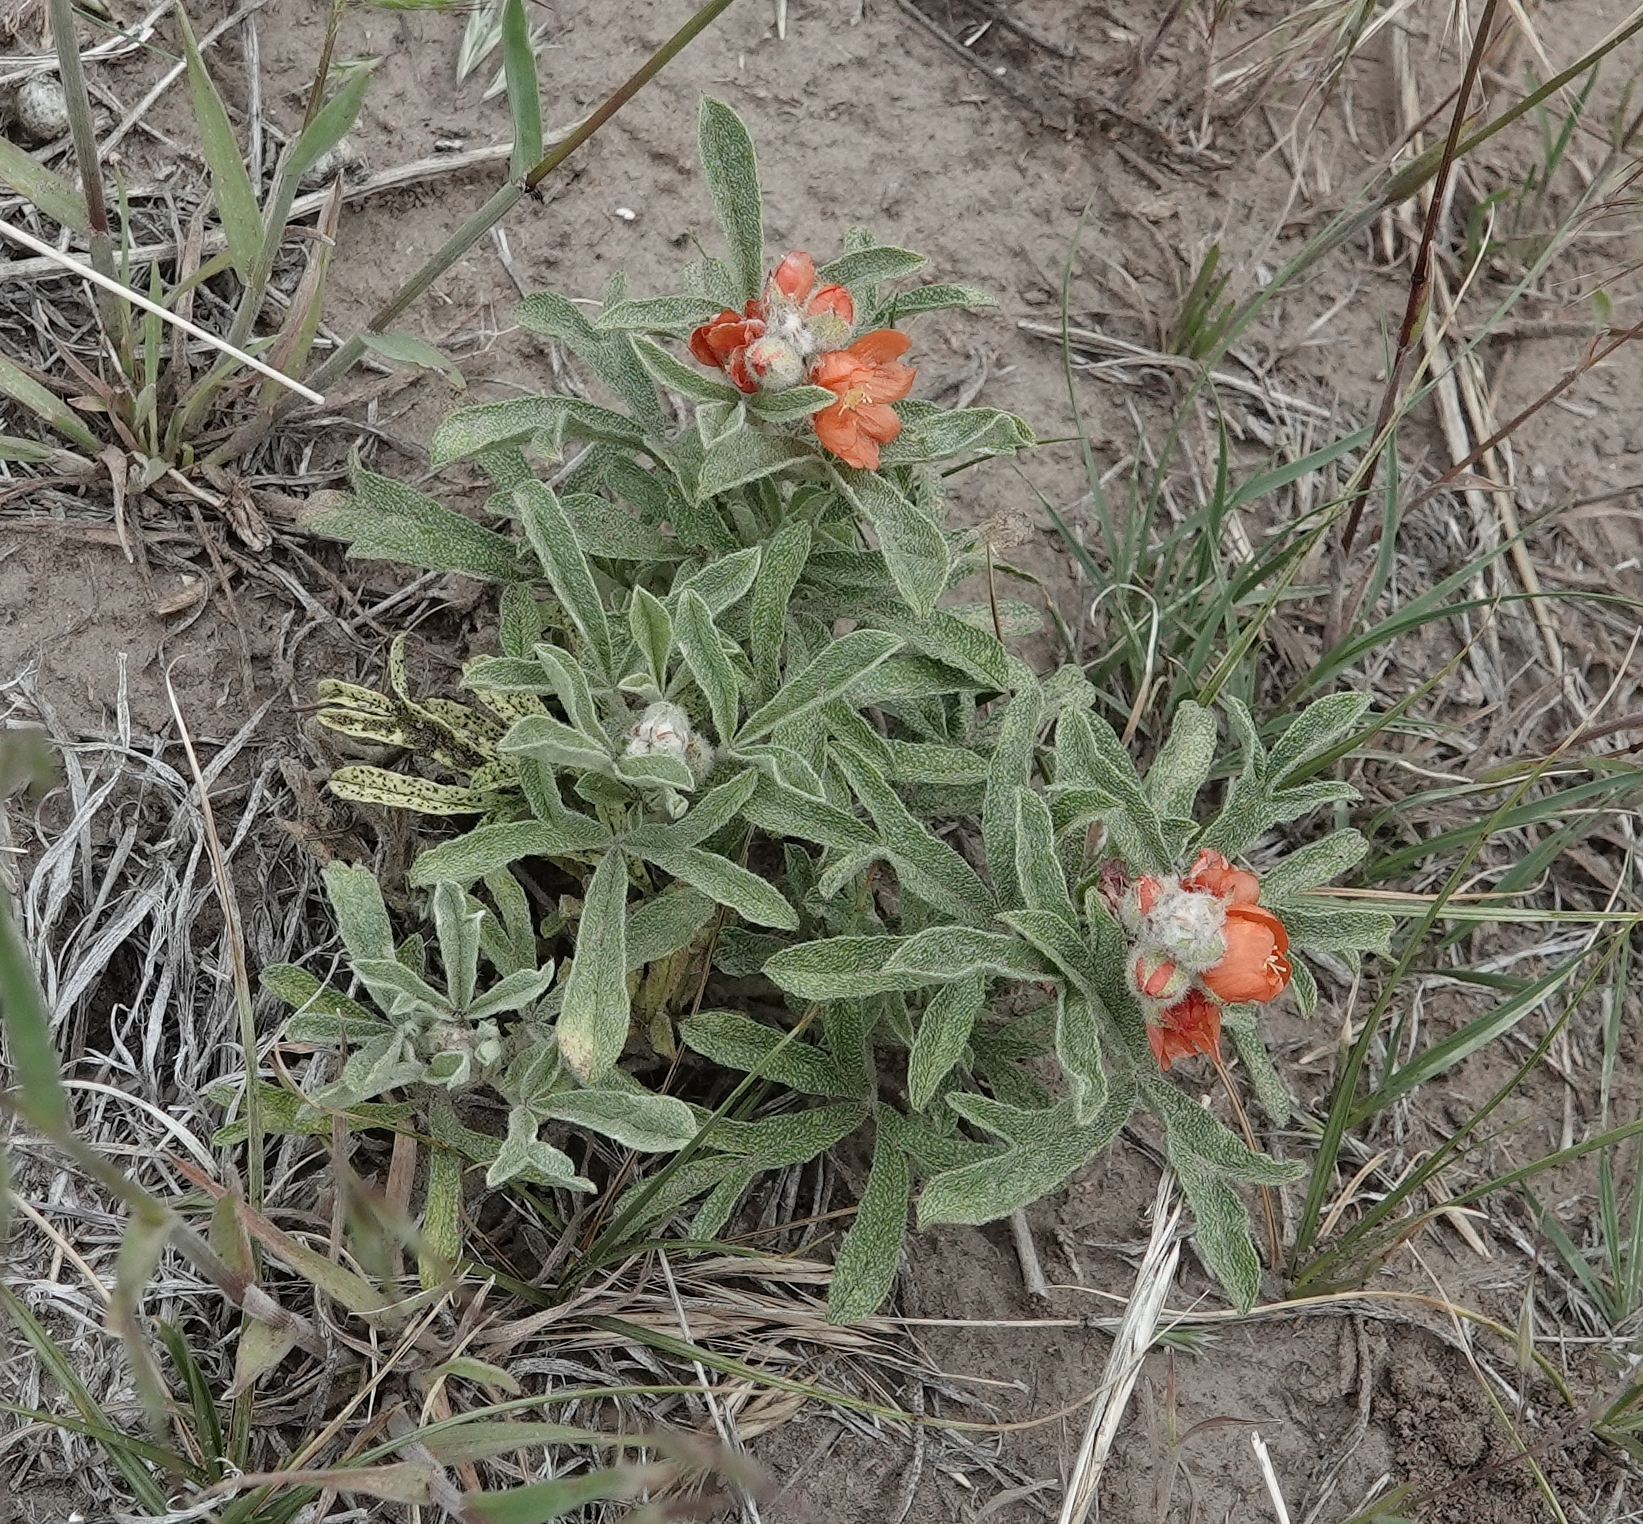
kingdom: Plantae
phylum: Tracheophyta
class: Magnoliopsida
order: Malvales
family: Malvaceae
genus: Sphaeralcea
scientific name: Sphaeralcea coccinea
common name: Moss-rose
